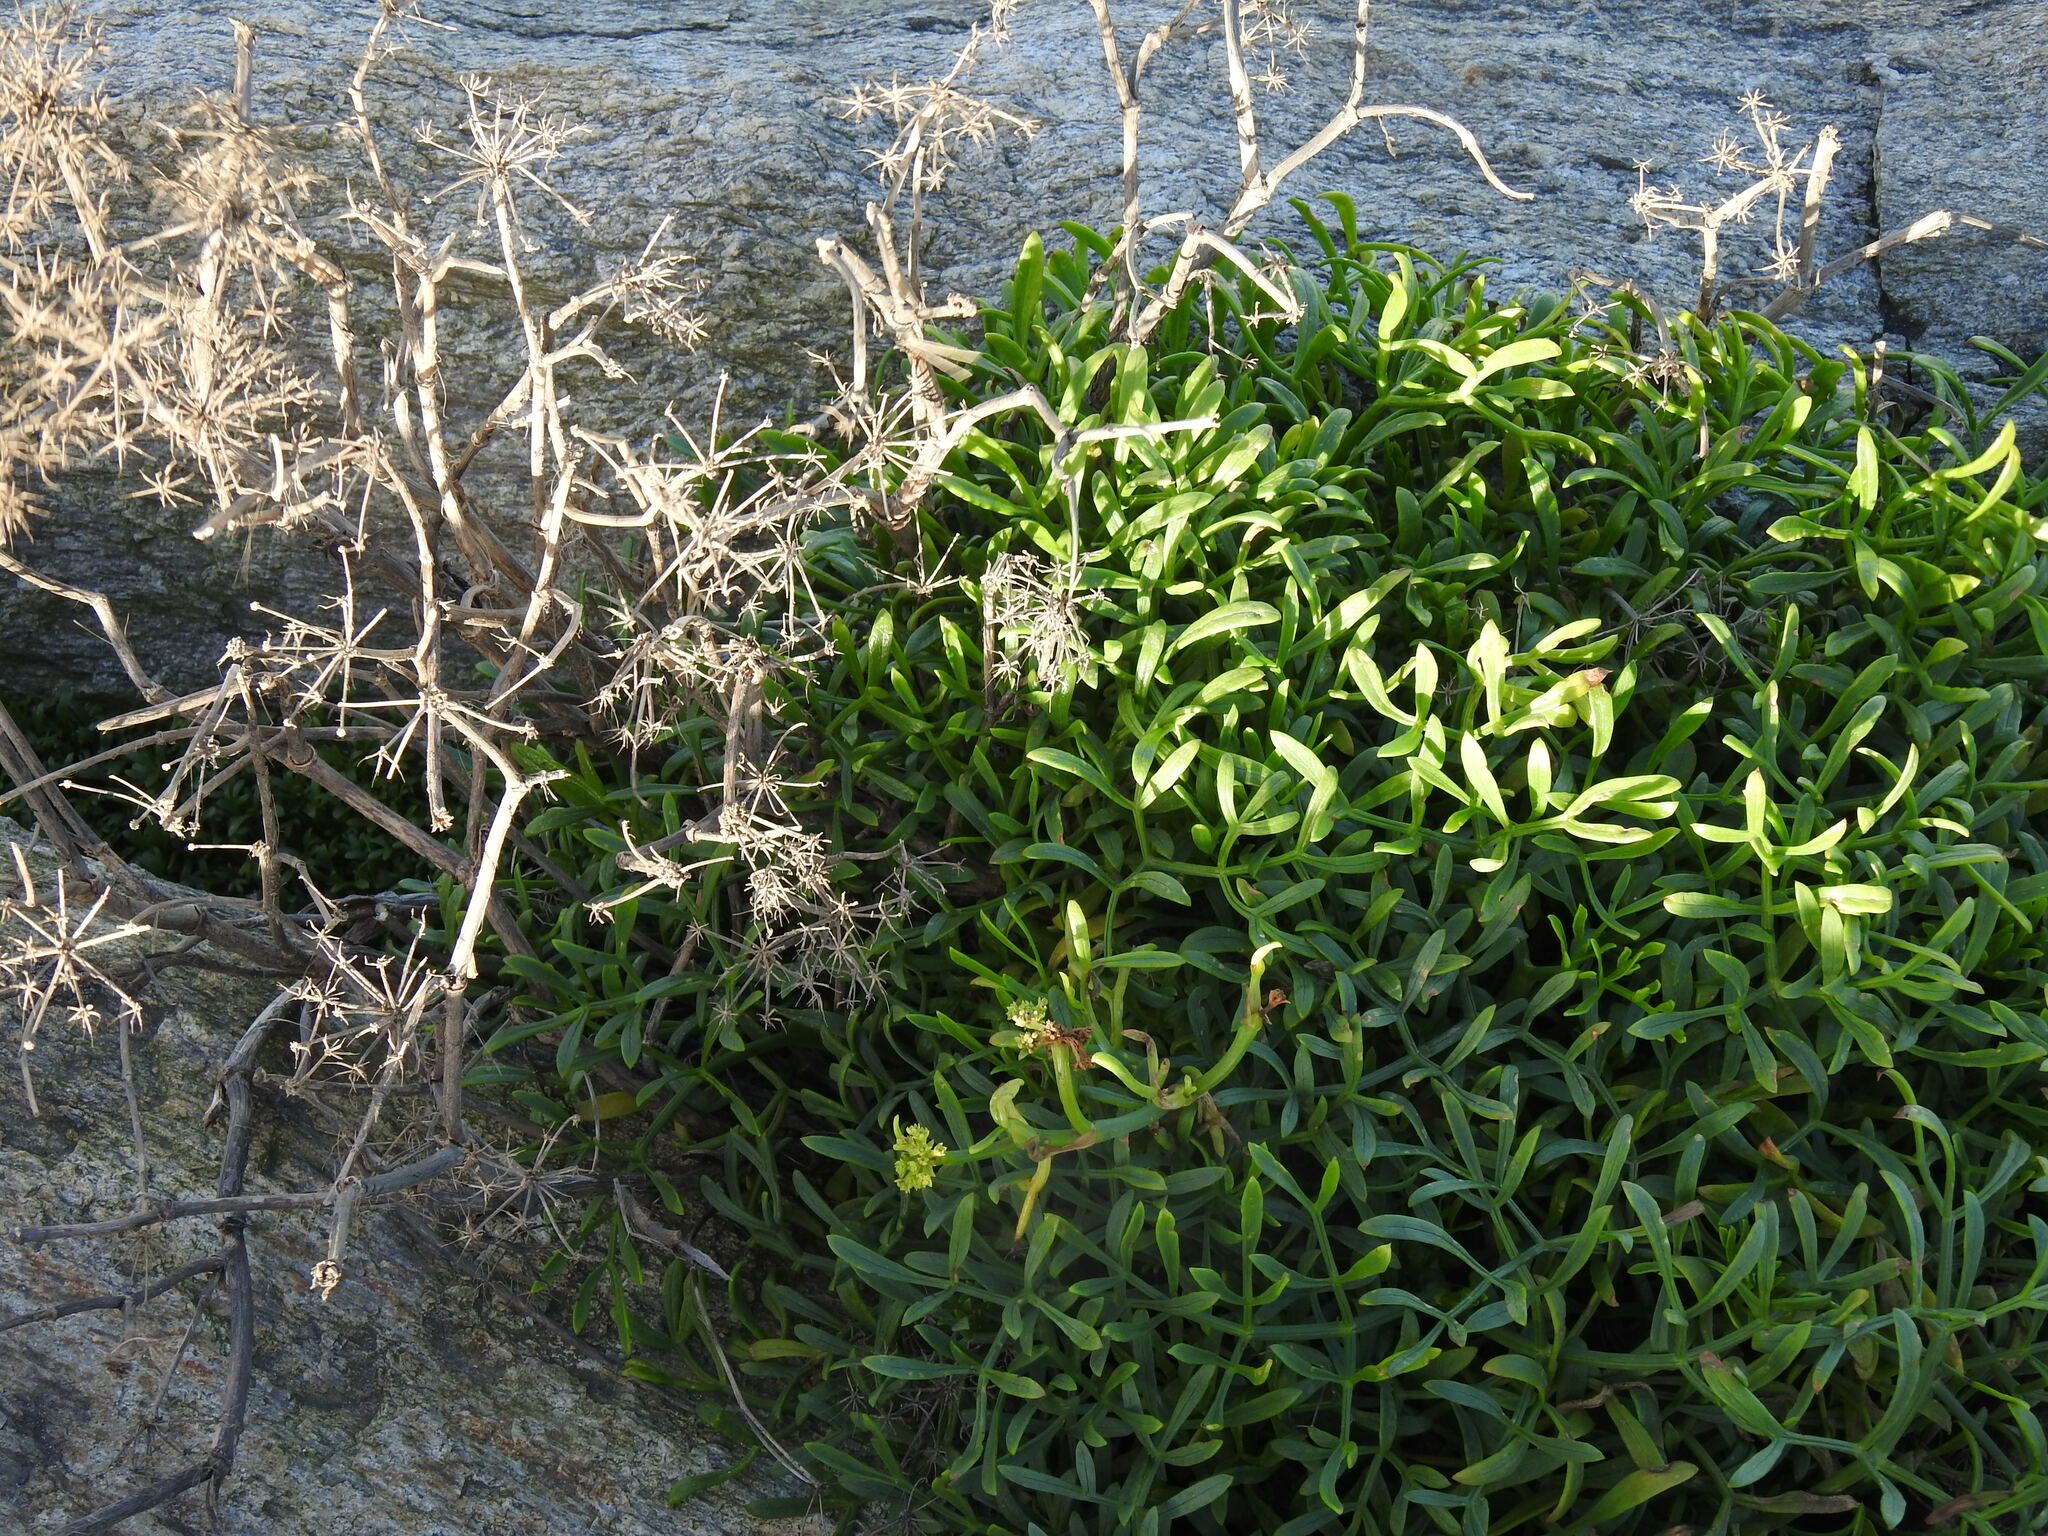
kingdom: Plantae
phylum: Tracheophyta
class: Magnoliopsida
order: Apiales
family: Apiaceae
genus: Crithmum
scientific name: Crithmum maritimum
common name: Rock samphire
